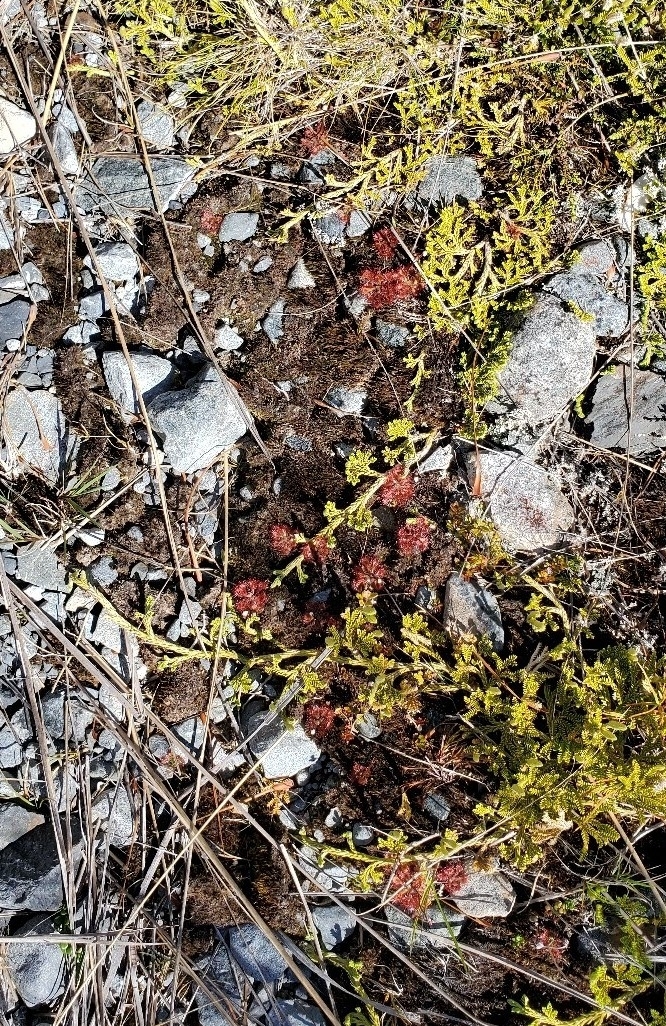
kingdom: Plantae
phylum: Tracheophyta
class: Magnoliopsida
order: Caryophyllales
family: Droseraceae
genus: Drosera
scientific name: Drosera spatulata
